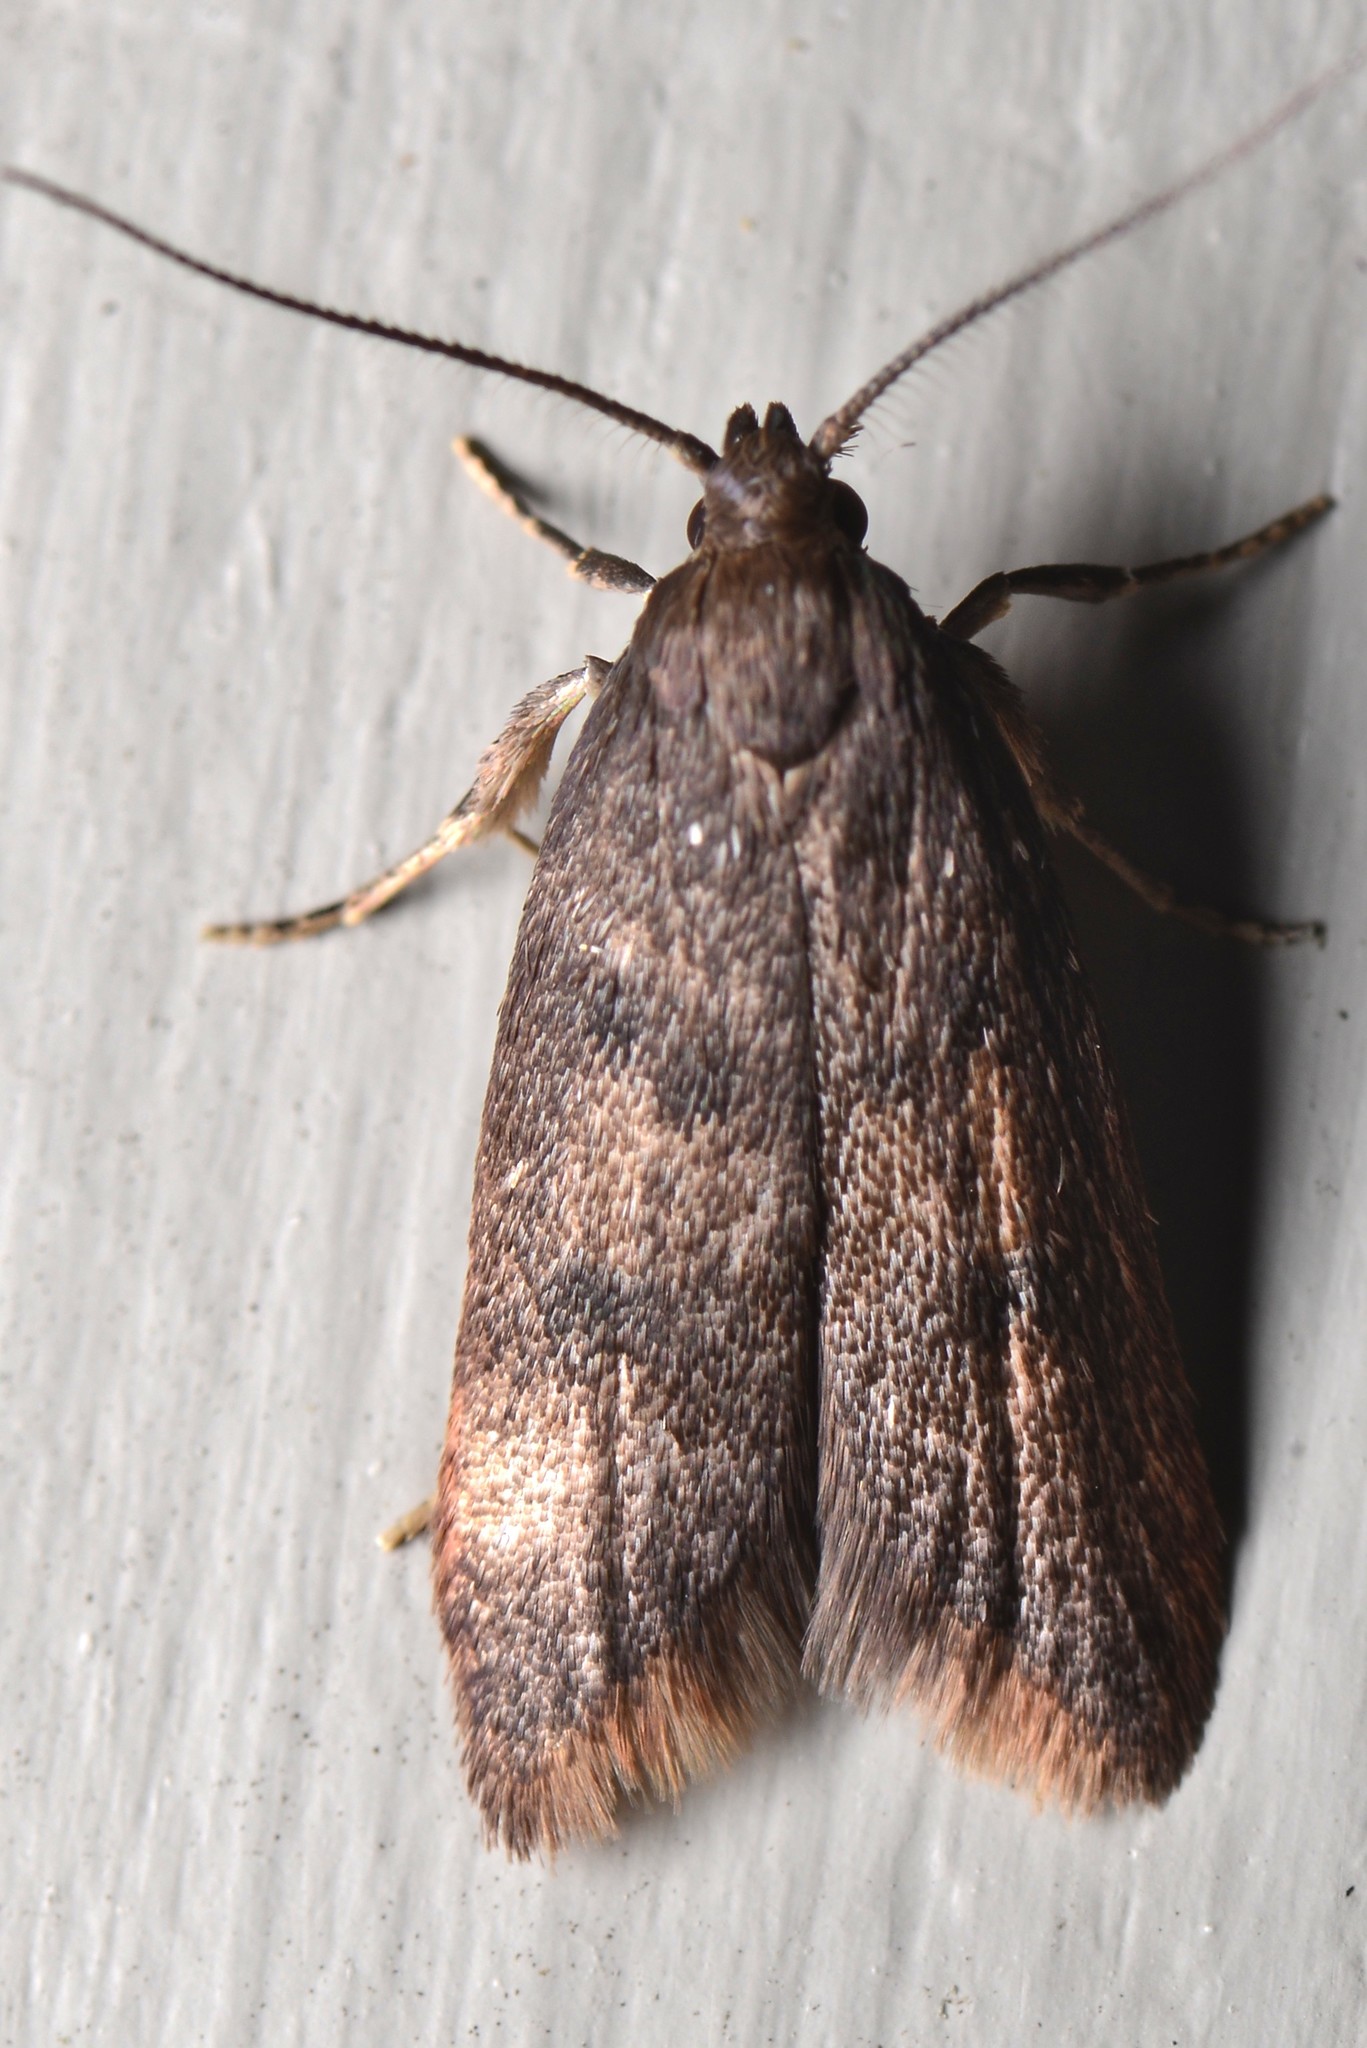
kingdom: Animalia
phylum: Arthropoda
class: Insecta
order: Lepidoptera
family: Oecophoridae
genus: Tachystola
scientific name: Tachystola acroxantha
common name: Ruddy streak
